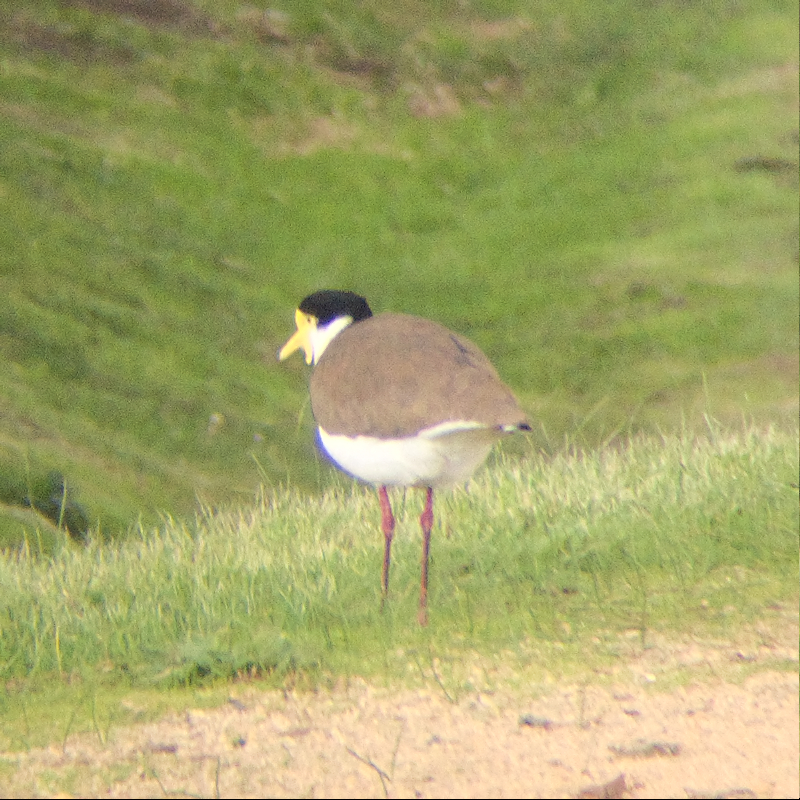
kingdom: Animalia
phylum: Chordata
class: Aves
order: Charadriiformes
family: Charadriidae
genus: Vanellus
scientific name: Vanellus miles
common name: Masked lapwing
